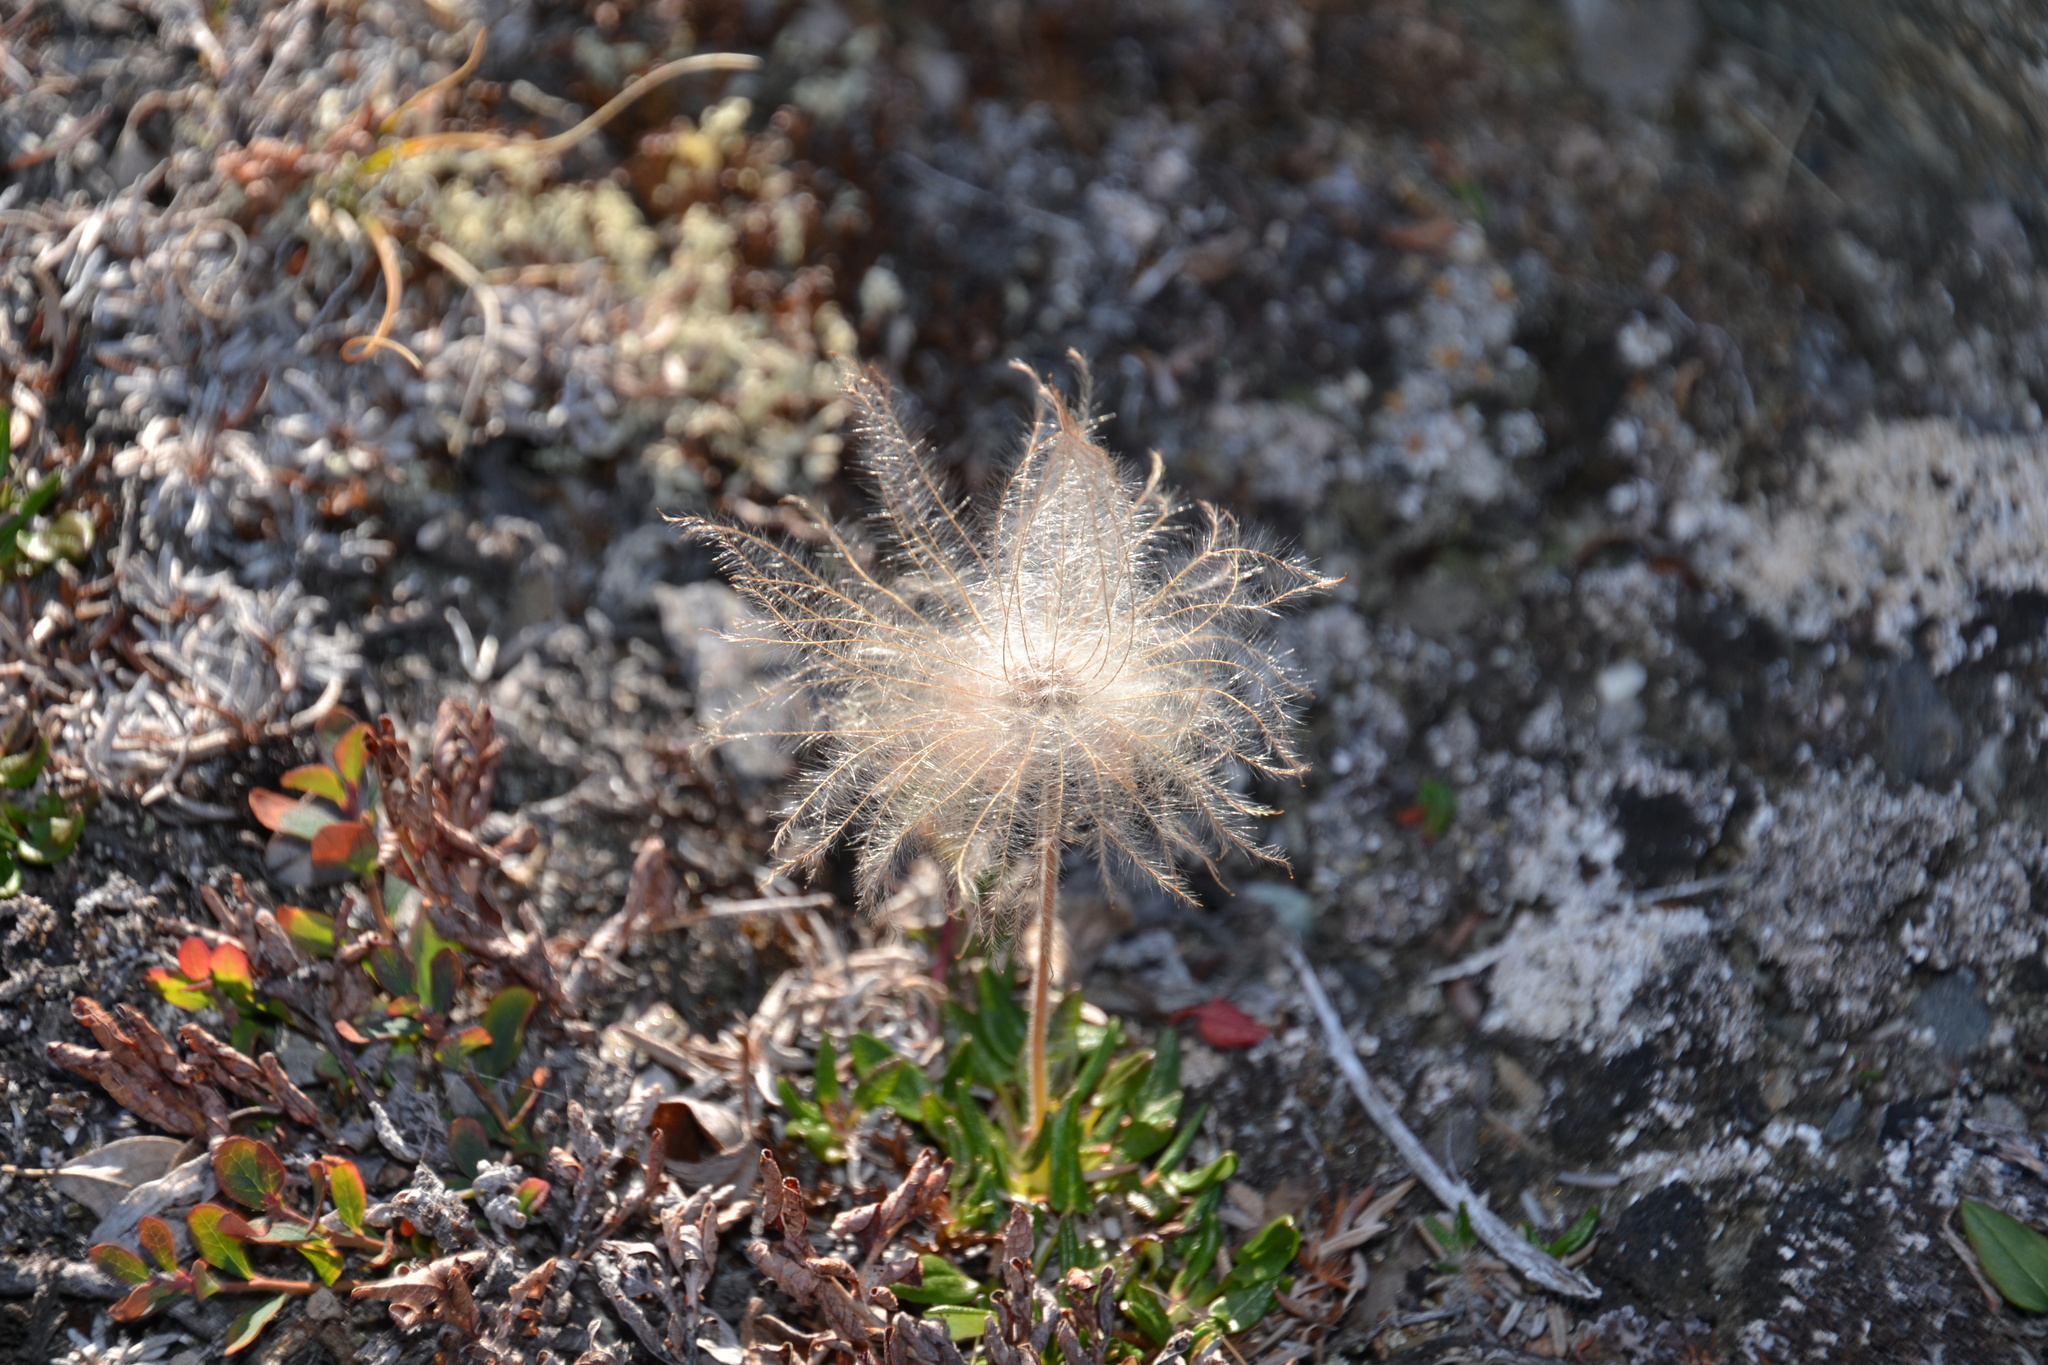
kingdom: Plantae
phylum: Tracheophyta
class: Magnoliopsida
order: Rosales
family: Rosaceae
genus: Dryas
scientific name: Dryas integrifolia
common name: Entire-leaved mountain avens
